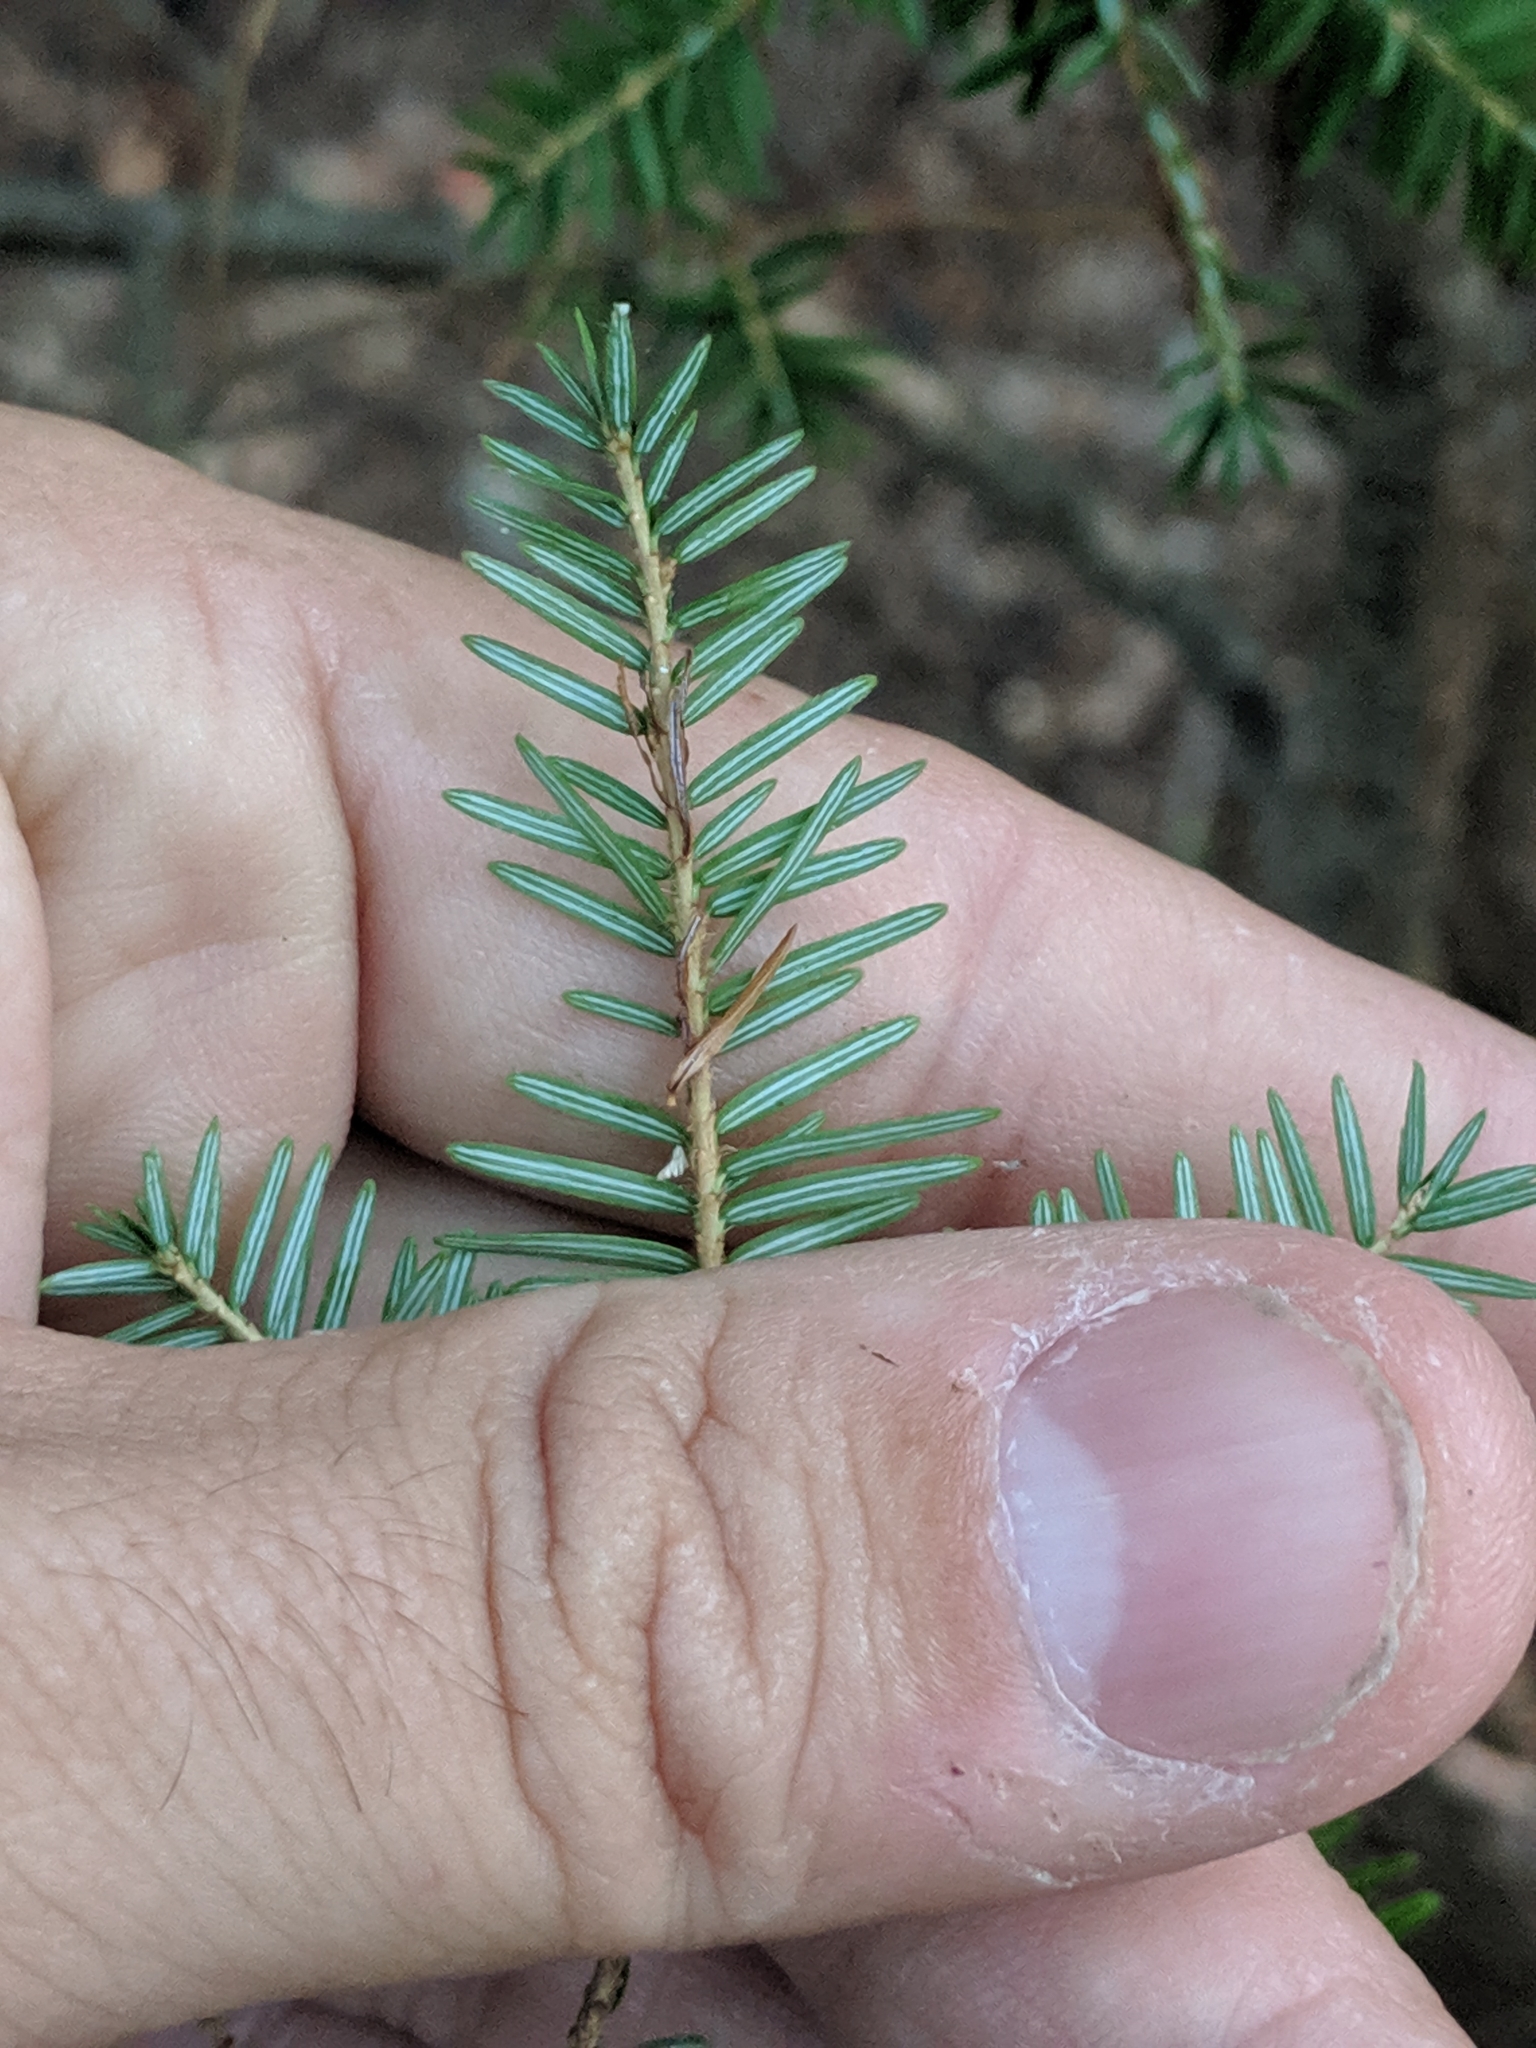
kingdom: Plantae
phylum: Tracheophyta
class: Pinopsida
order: Pinales
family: Pinaceae
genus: Tsuga
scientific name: Tsuga canadensis
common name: Eastern hemlock
